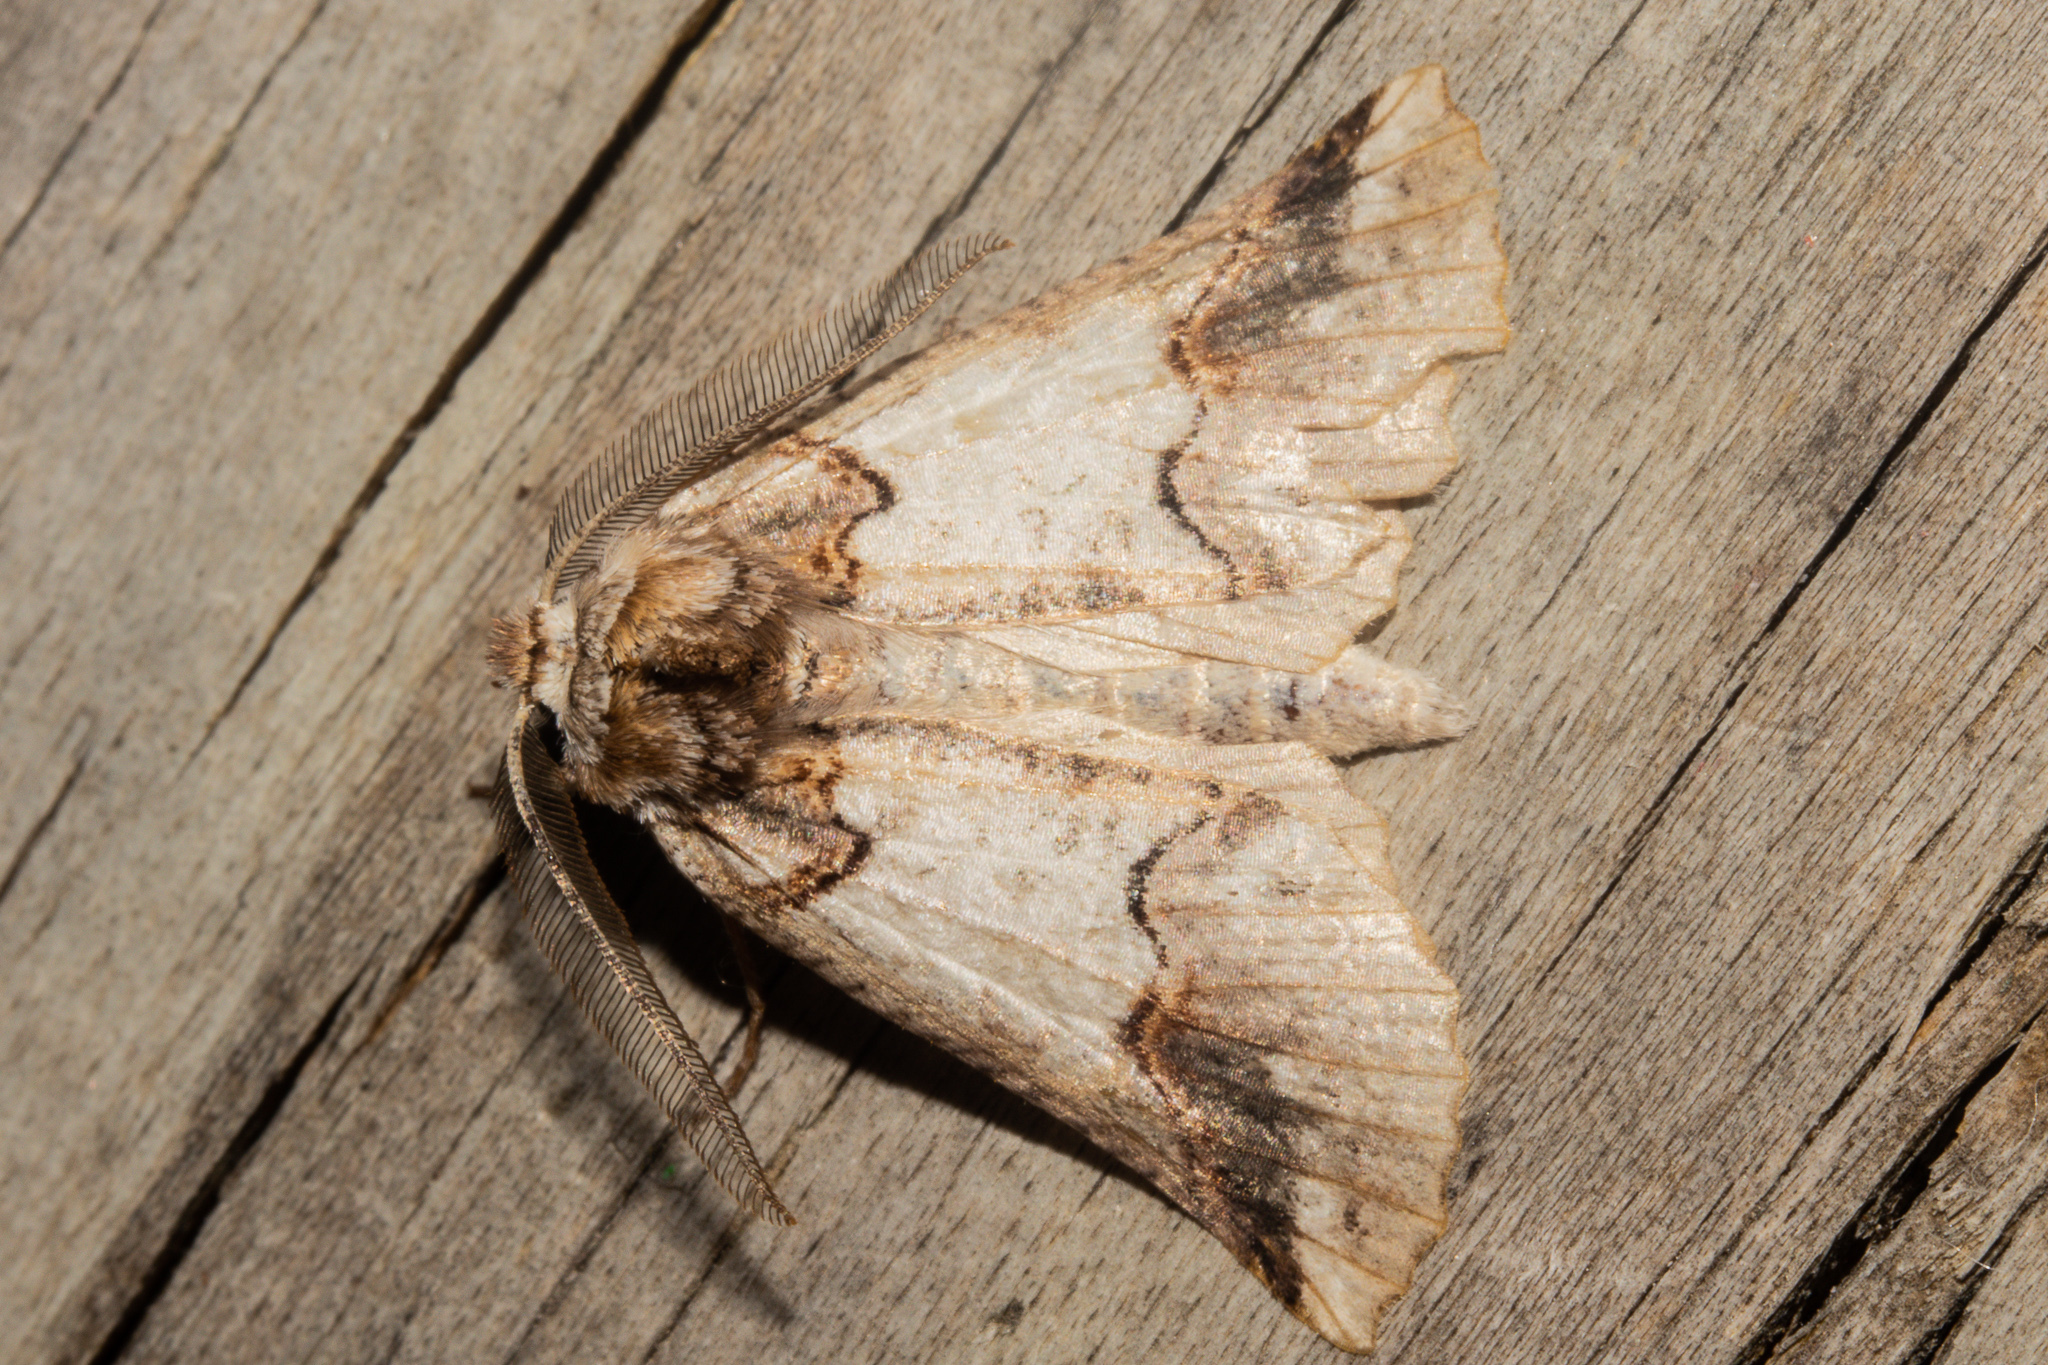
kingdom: Animalia
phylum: Arthropoda
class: Insecta
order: Lepidoptera
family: Geometridae
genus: Declana
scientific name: Declana
